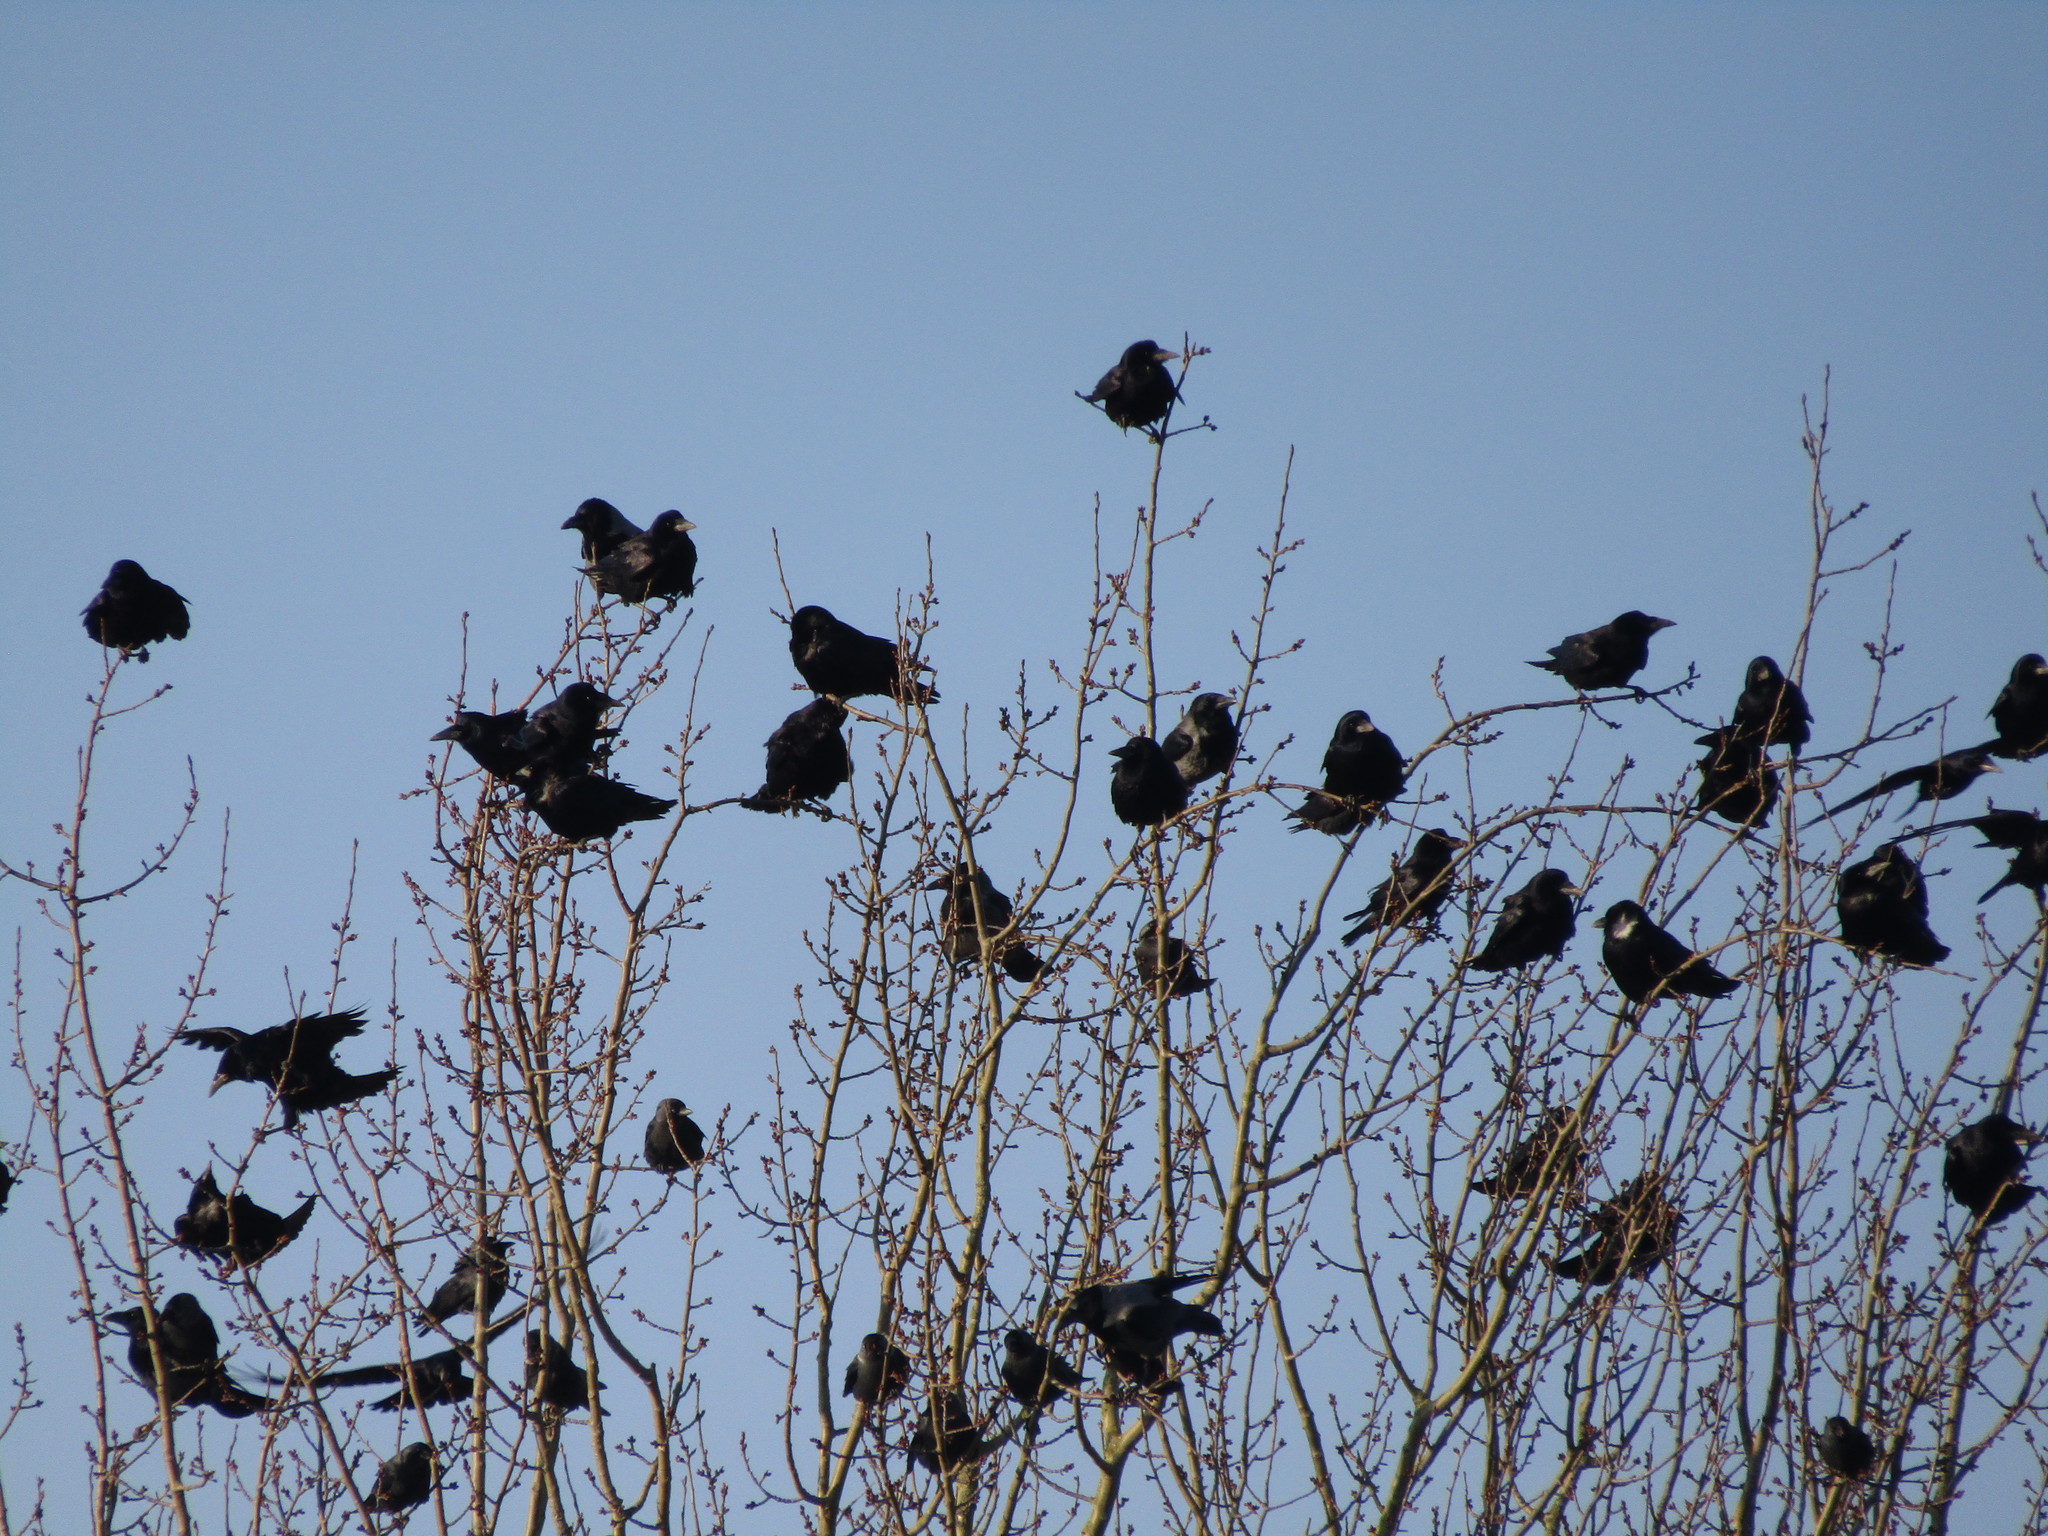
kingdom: Animalia
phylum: Chordata
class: Aves
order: Passeriformes
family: Corvidae
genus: Corvus
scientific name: Corvus corone
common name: Carrion crow
